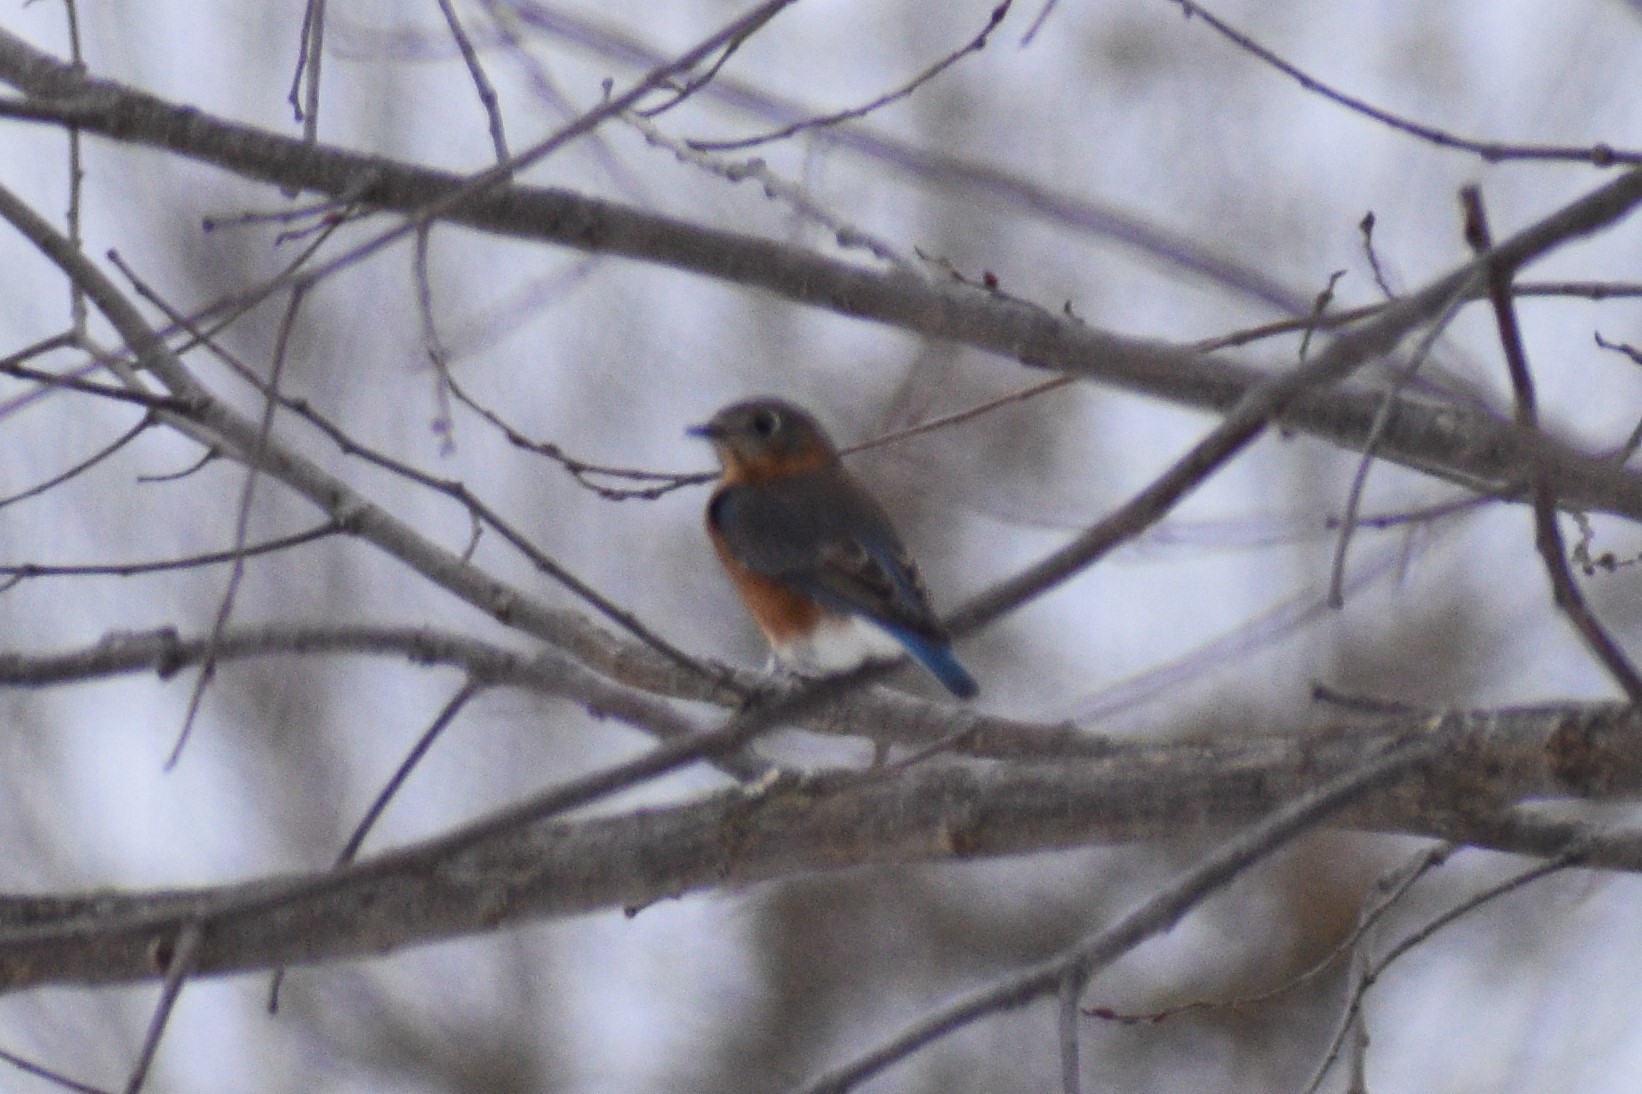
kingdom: Animalia
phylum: Chordata
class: Aves
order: Passeriformes
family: Turdidae
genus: Sialia
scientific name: Sialia sialis
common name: Eastern bluebird
